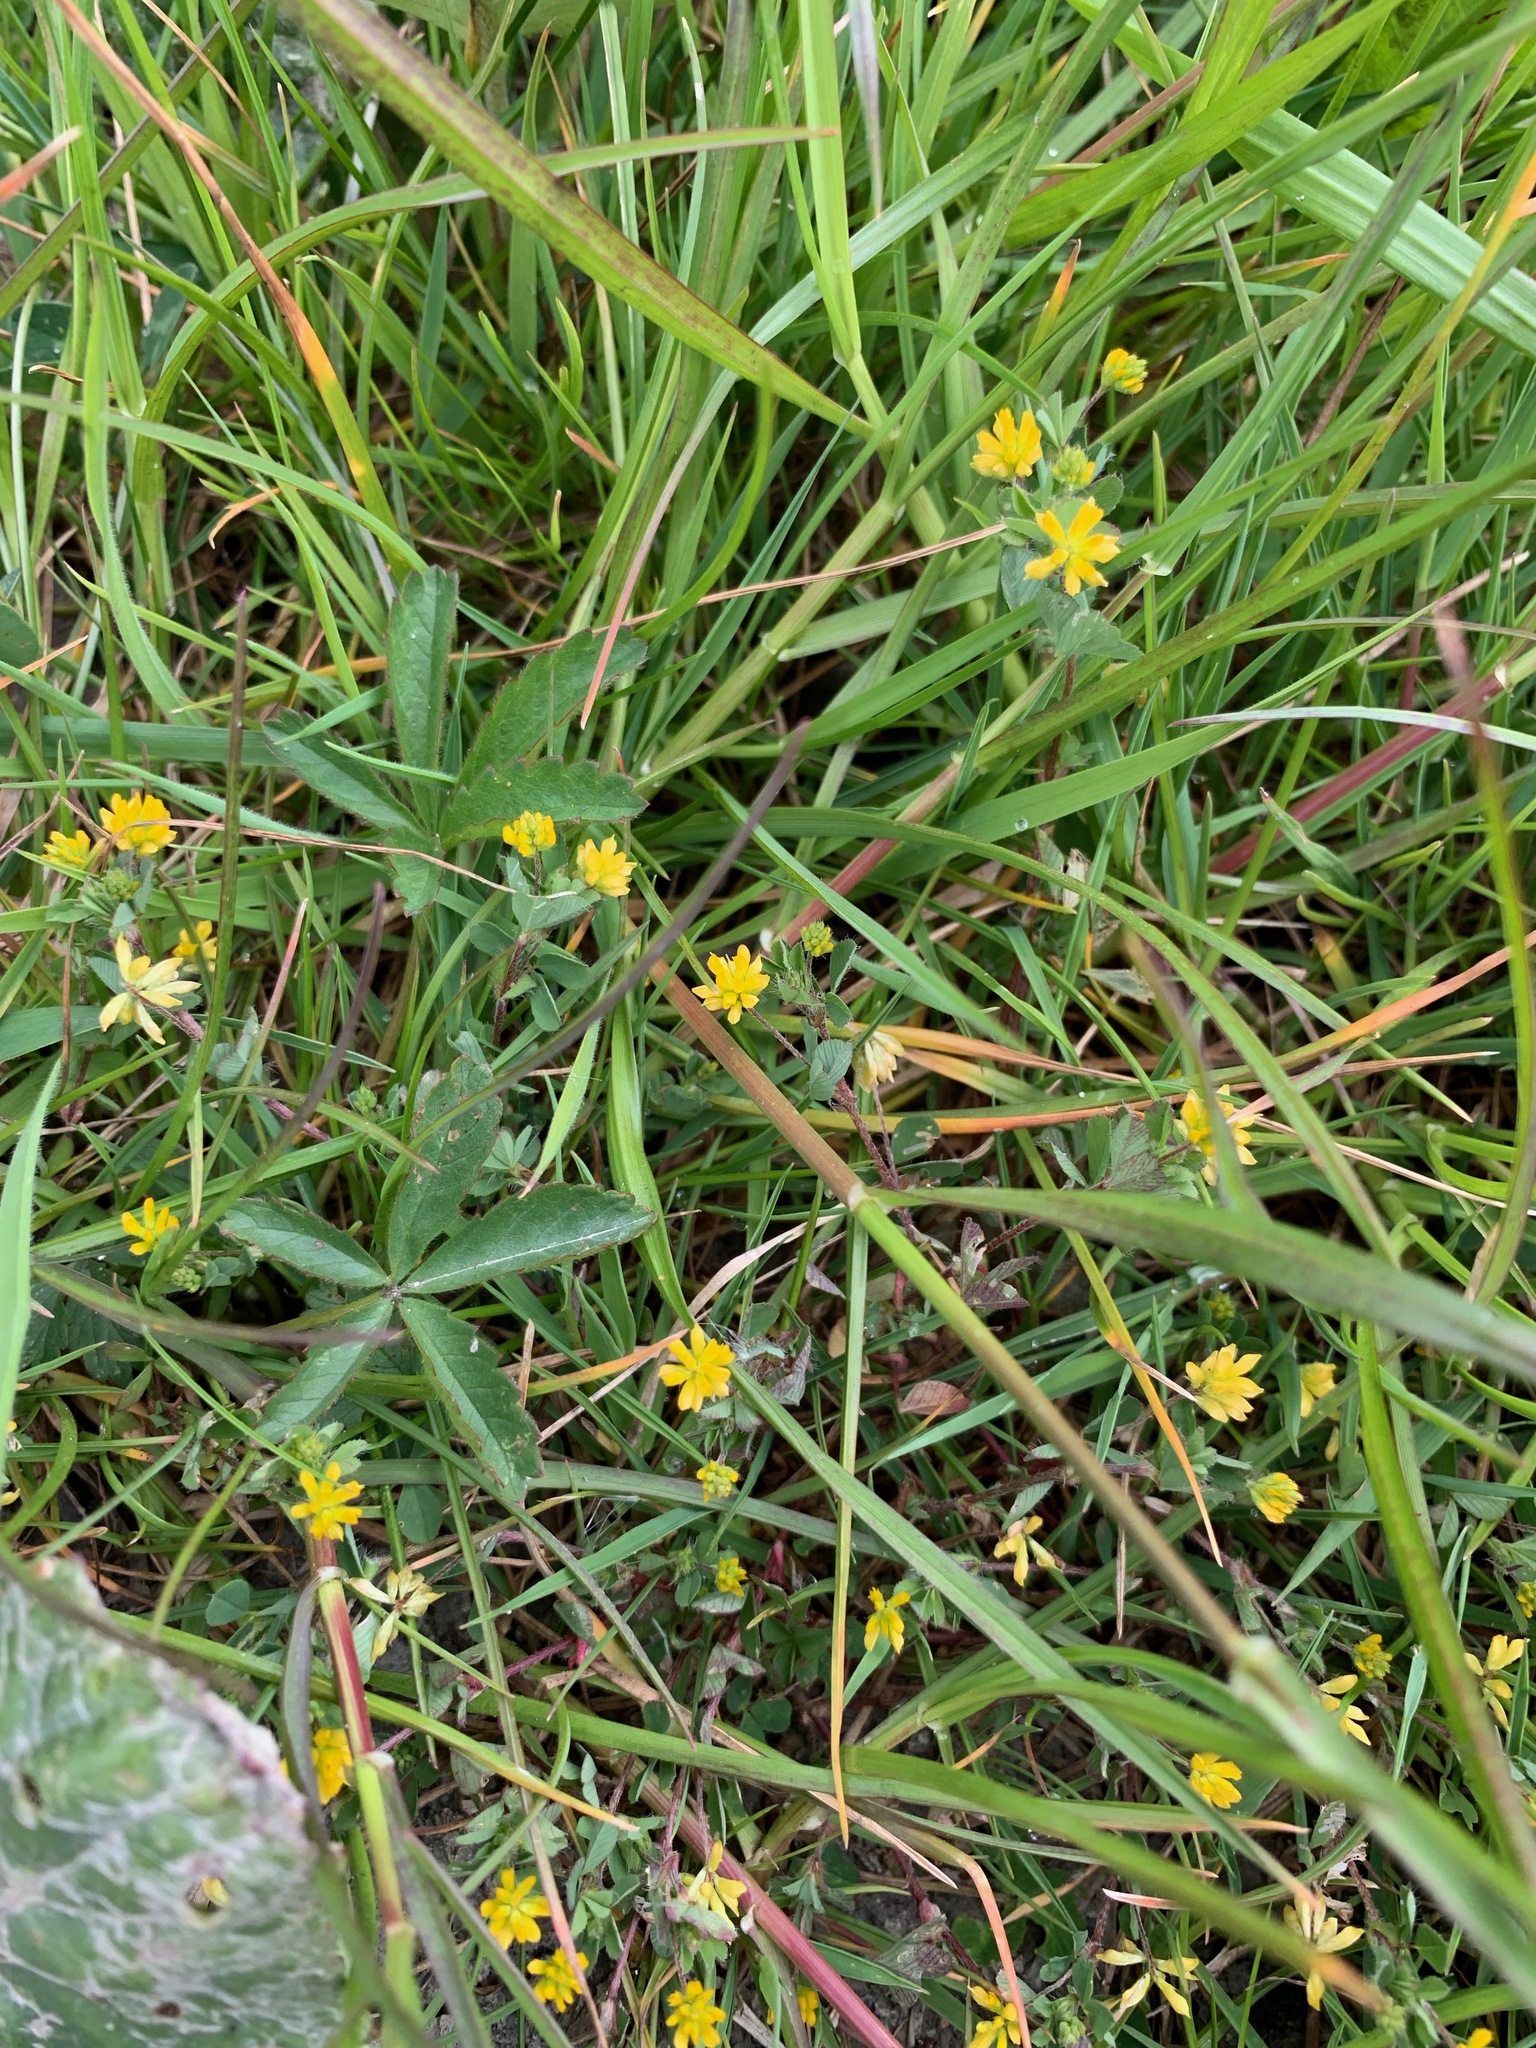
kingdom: Plantae
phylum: Tracheophyta
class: Magnoliopsida
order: Fabales
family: Fabaceae
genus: Trifolium
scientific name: Trifolium dubium
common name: Suckling clover
